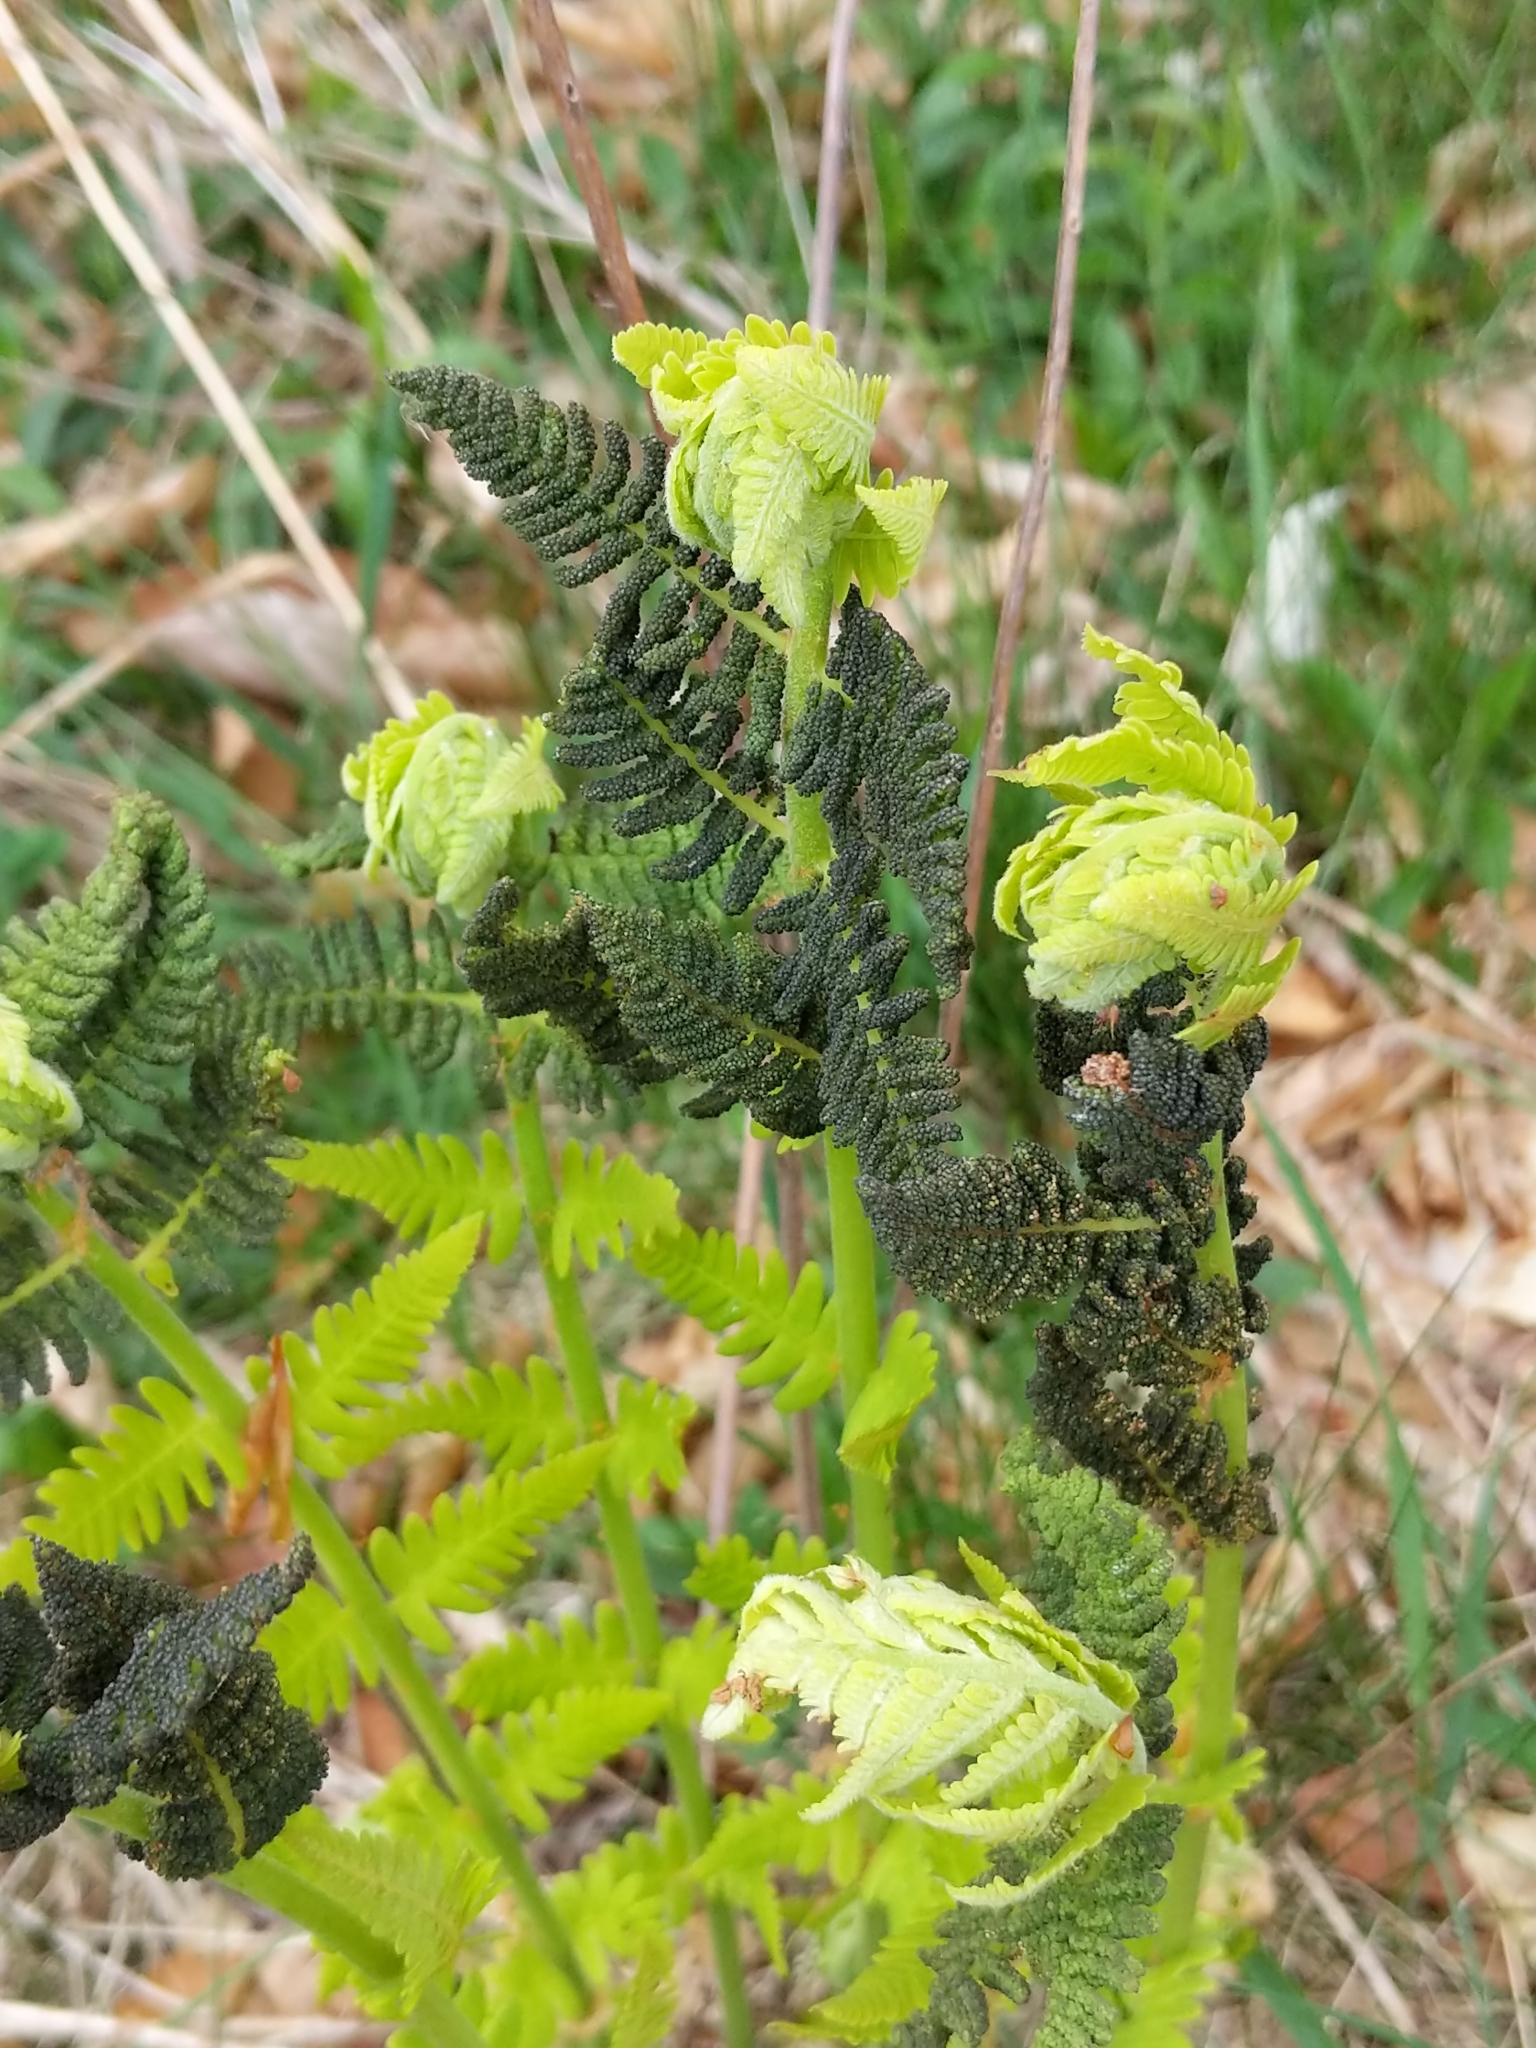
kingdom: Plantae
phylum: Tracheophyta
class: Polypodiopsida
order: Osmundales
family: Osmundaceae
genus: Claytosmunda
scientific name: Claytosmunda claytoniana
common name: Clayton's fern
